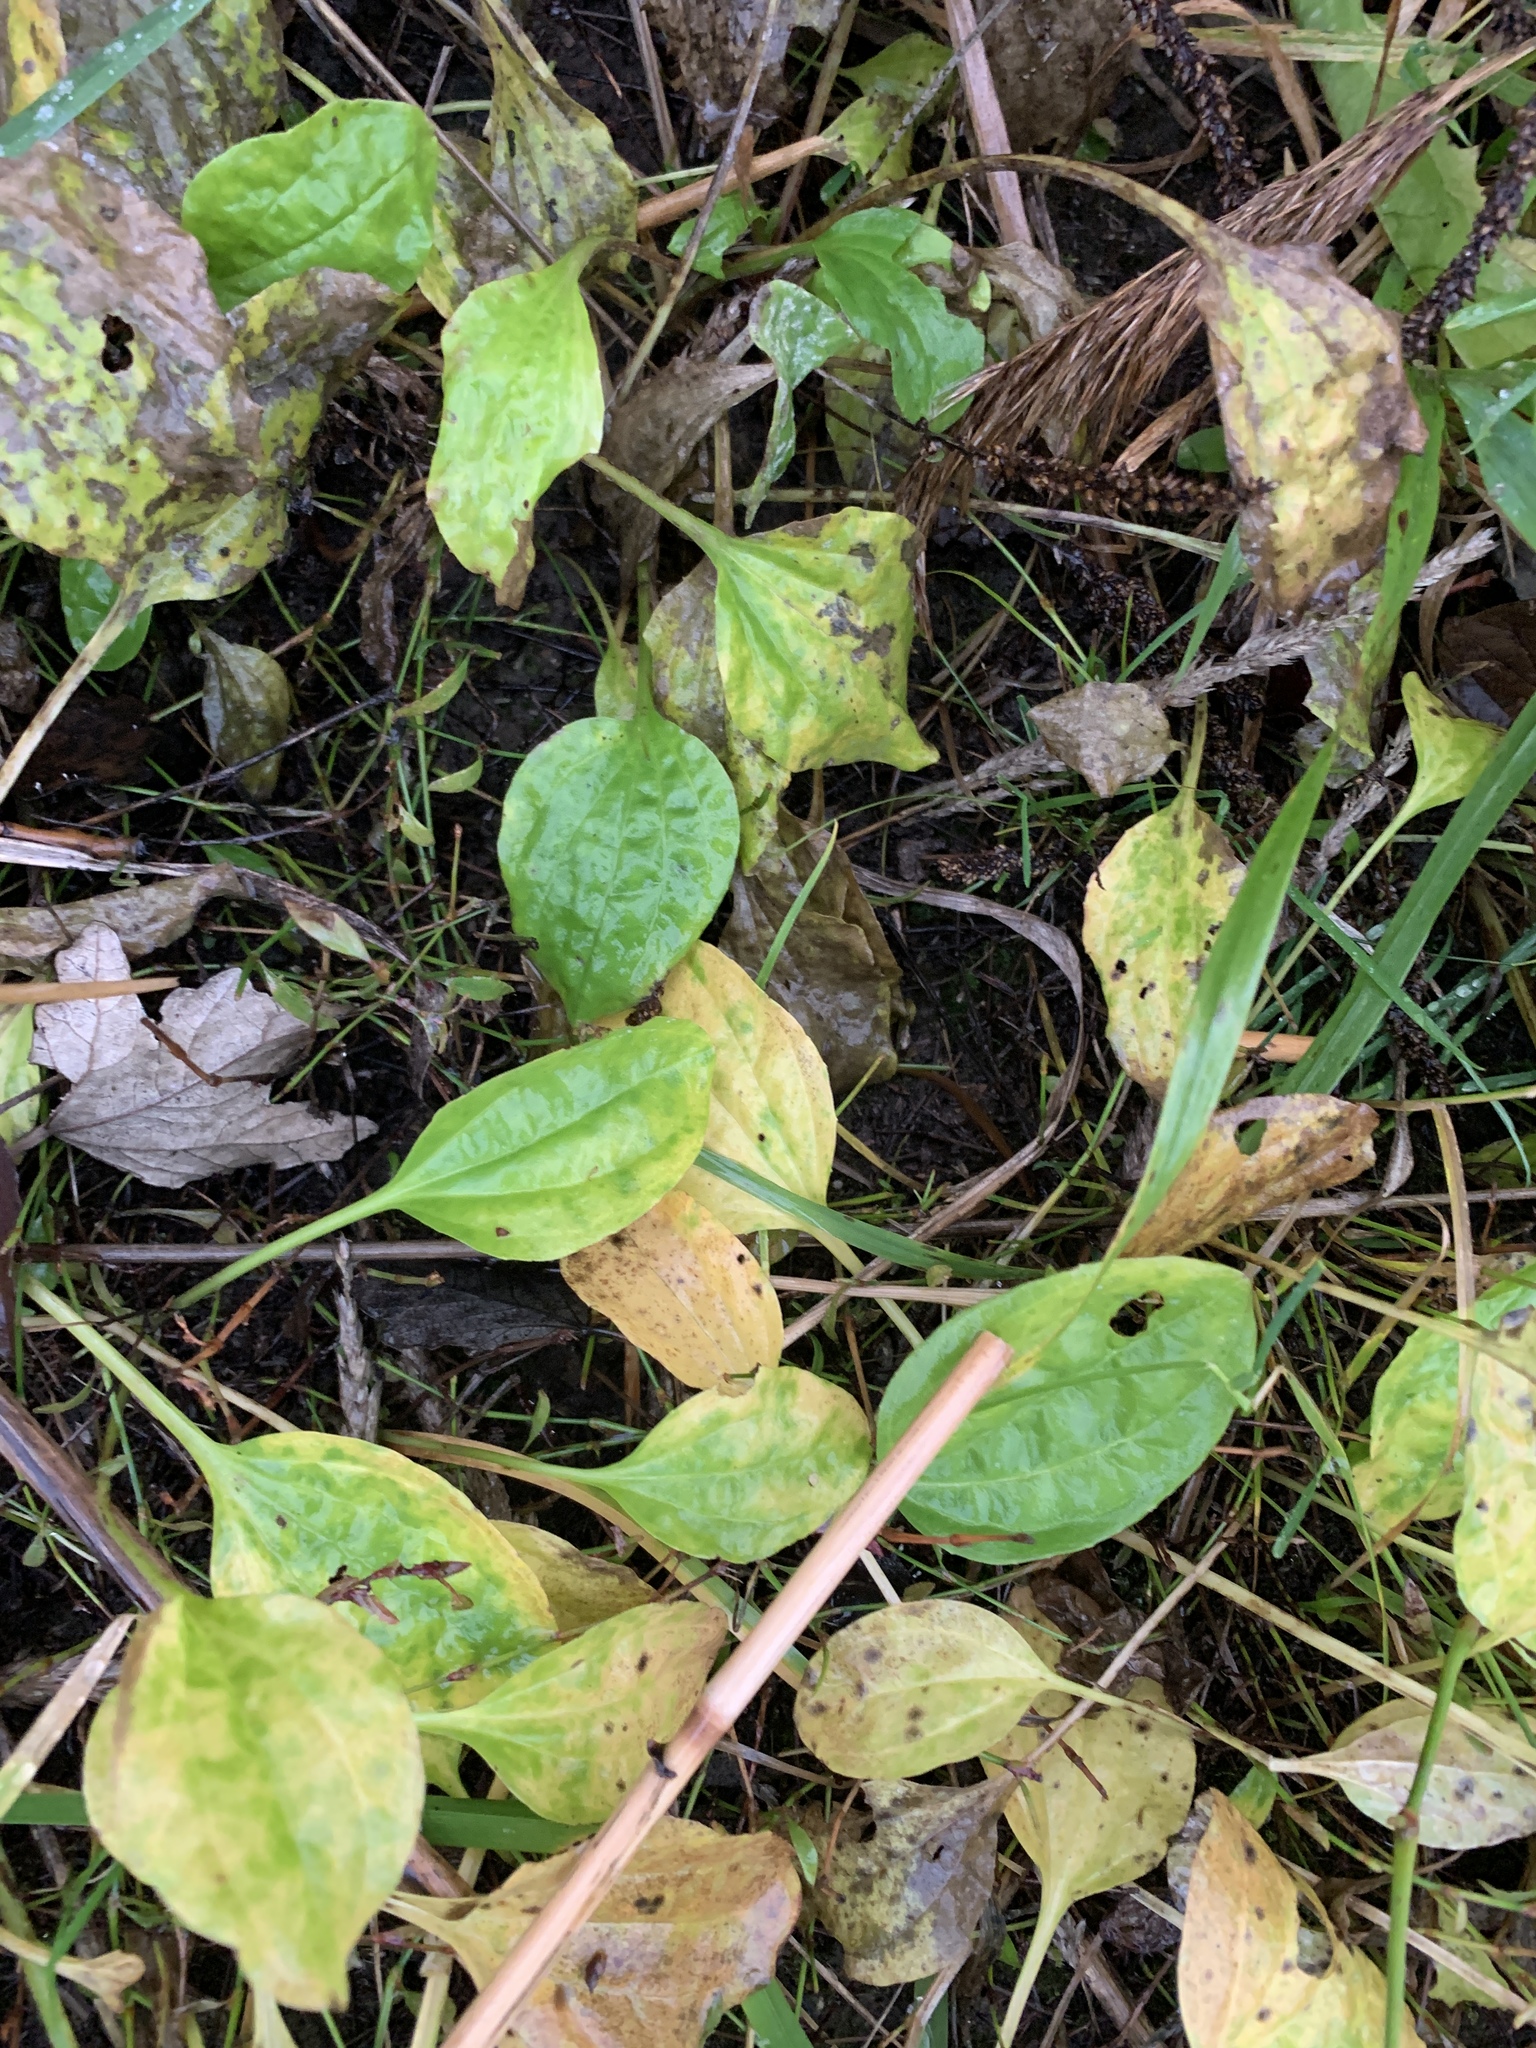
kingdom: Plantae
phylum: Tracheophyta
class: Magnoliopsida
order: Lamiales
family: Plantaginaceae
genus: Plantago
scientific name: Plantago major
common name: Common plantain
